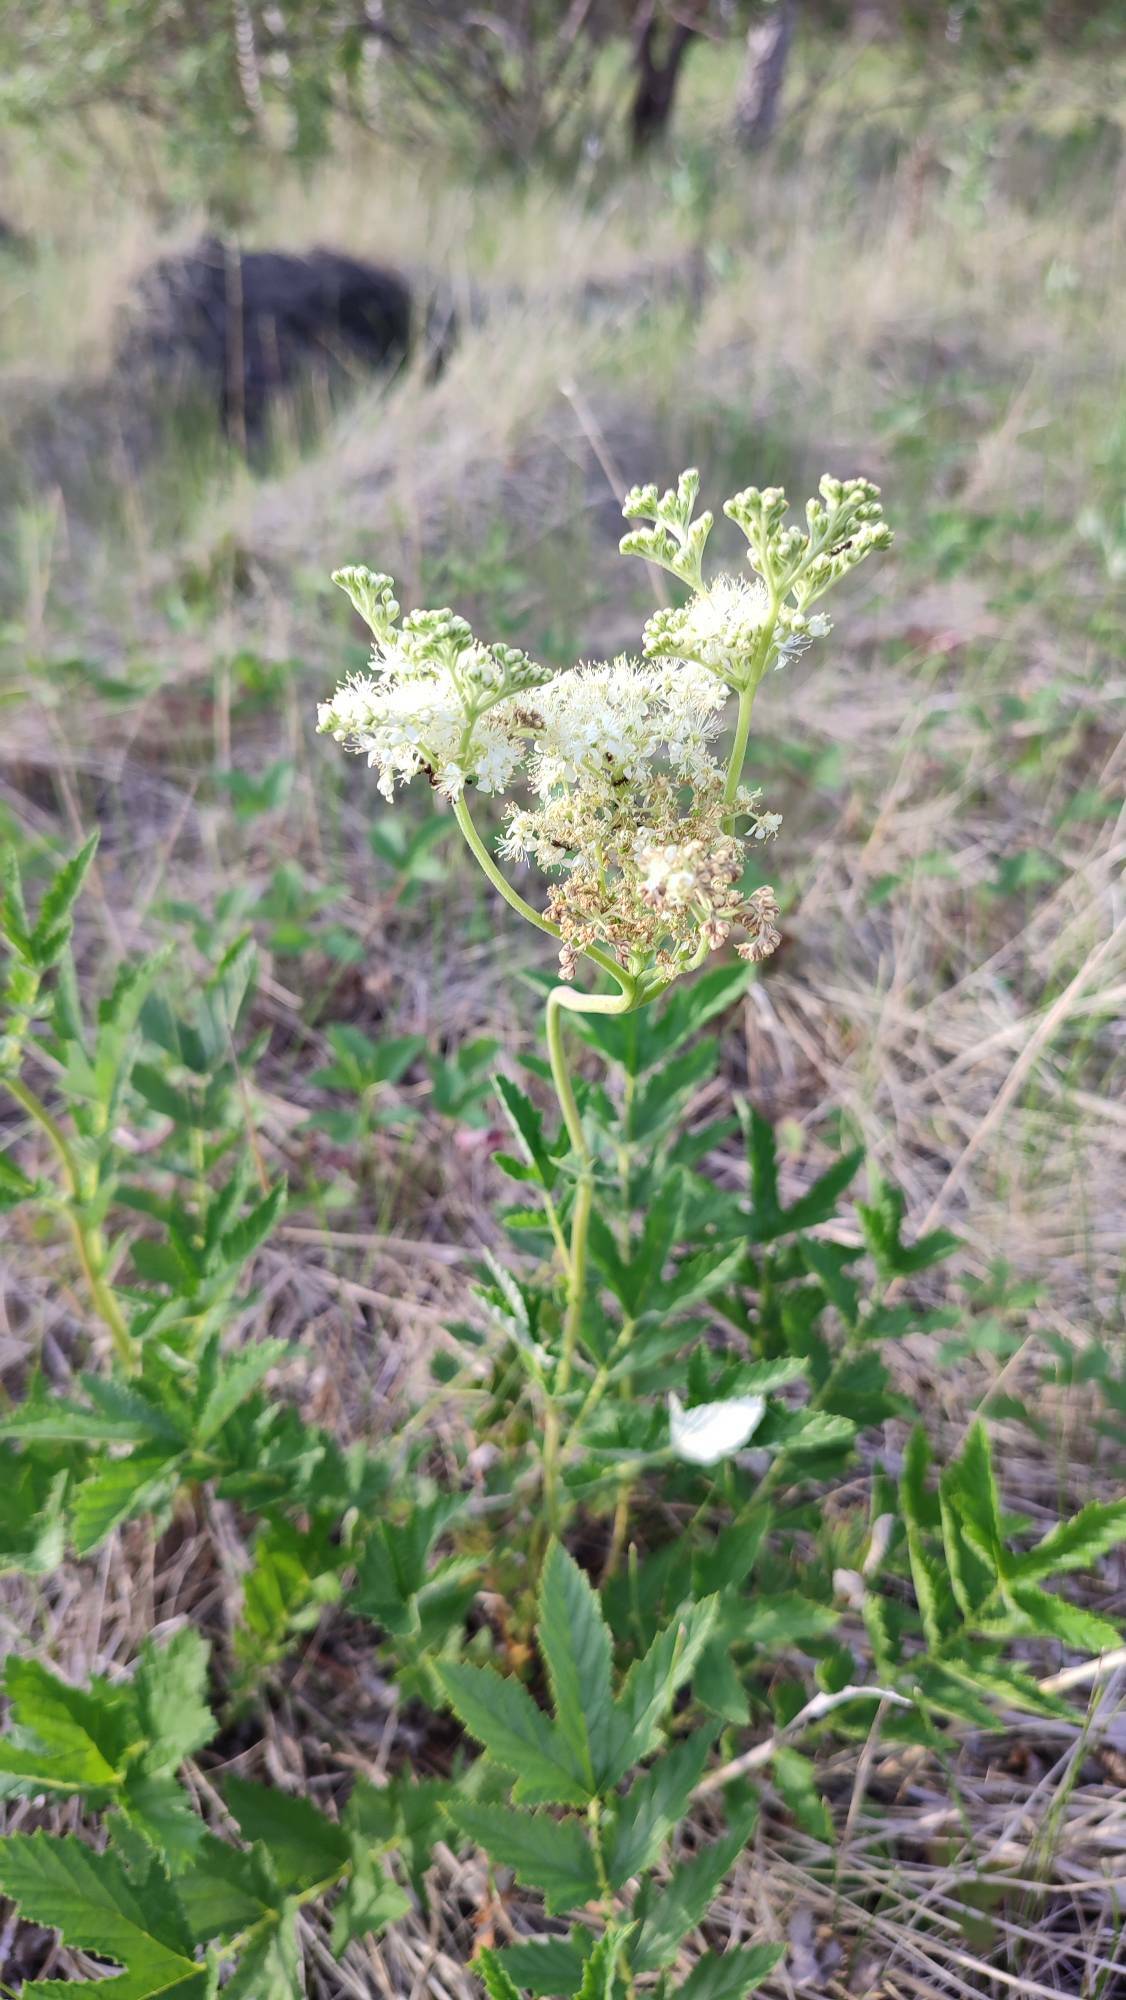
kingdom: Plantae
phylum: Tracheophyta
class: Magnoliopsida
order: Rosales
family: Rosaceae
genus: Filipendula
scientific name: Filipendula ulmaria
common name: Meadowsweet
